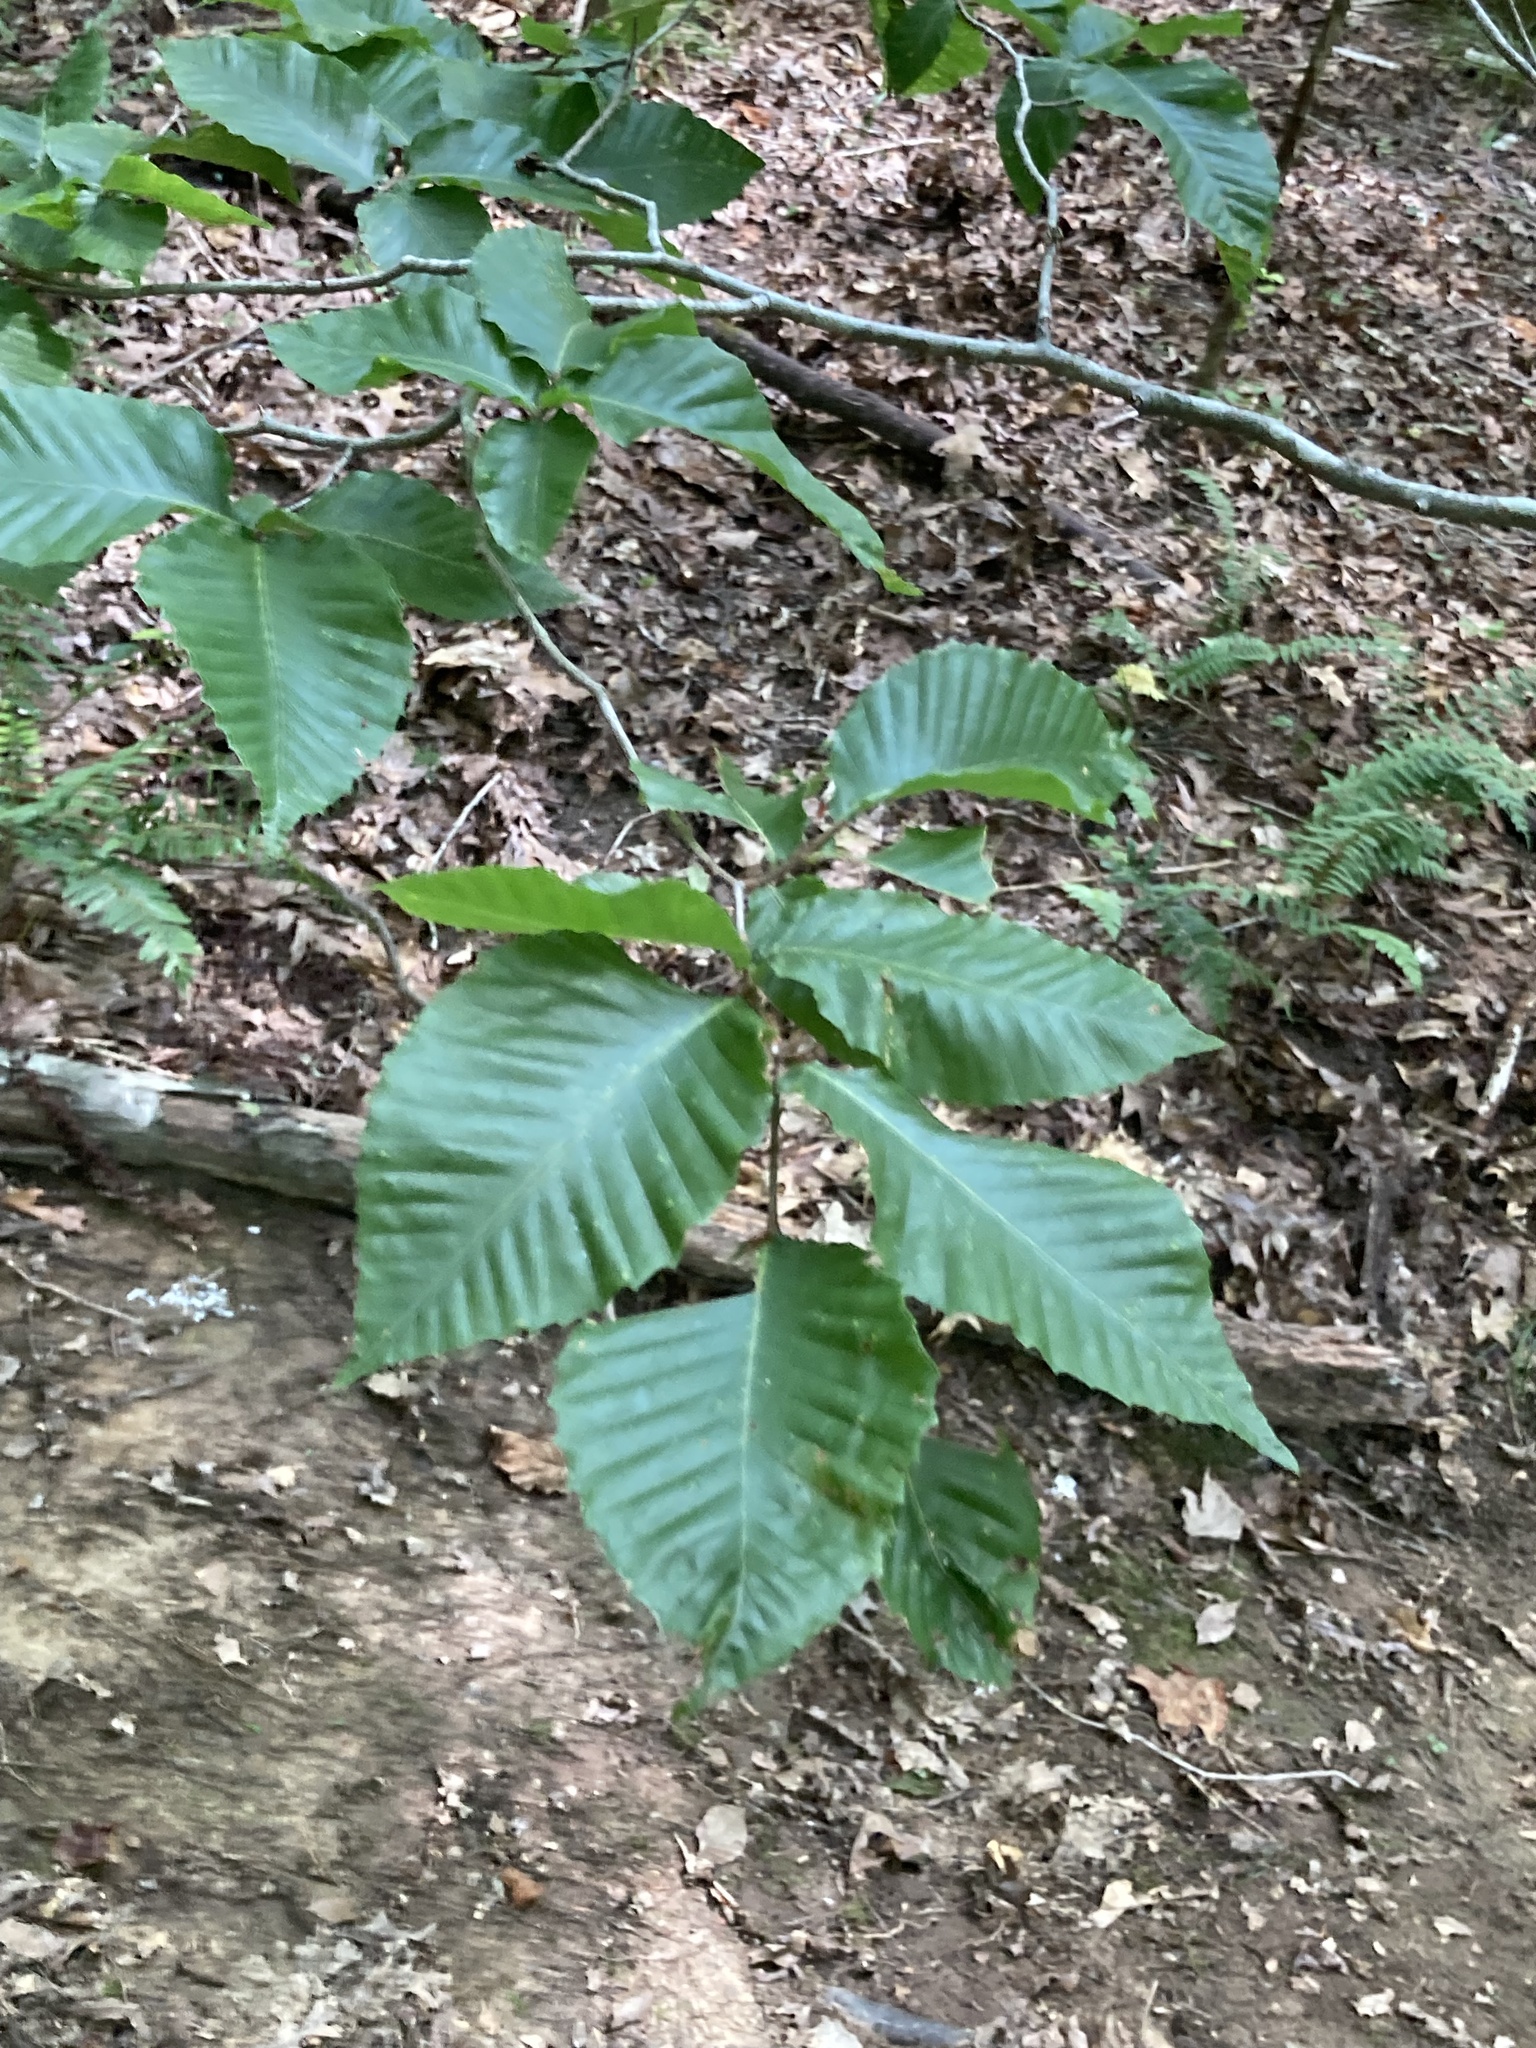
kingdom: Plantae
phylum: Tracheophyta
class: Magnoliopsida
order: Fagales
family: Fagaceae
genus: Fagus
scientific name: Fagus grandifolia
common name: American beech
